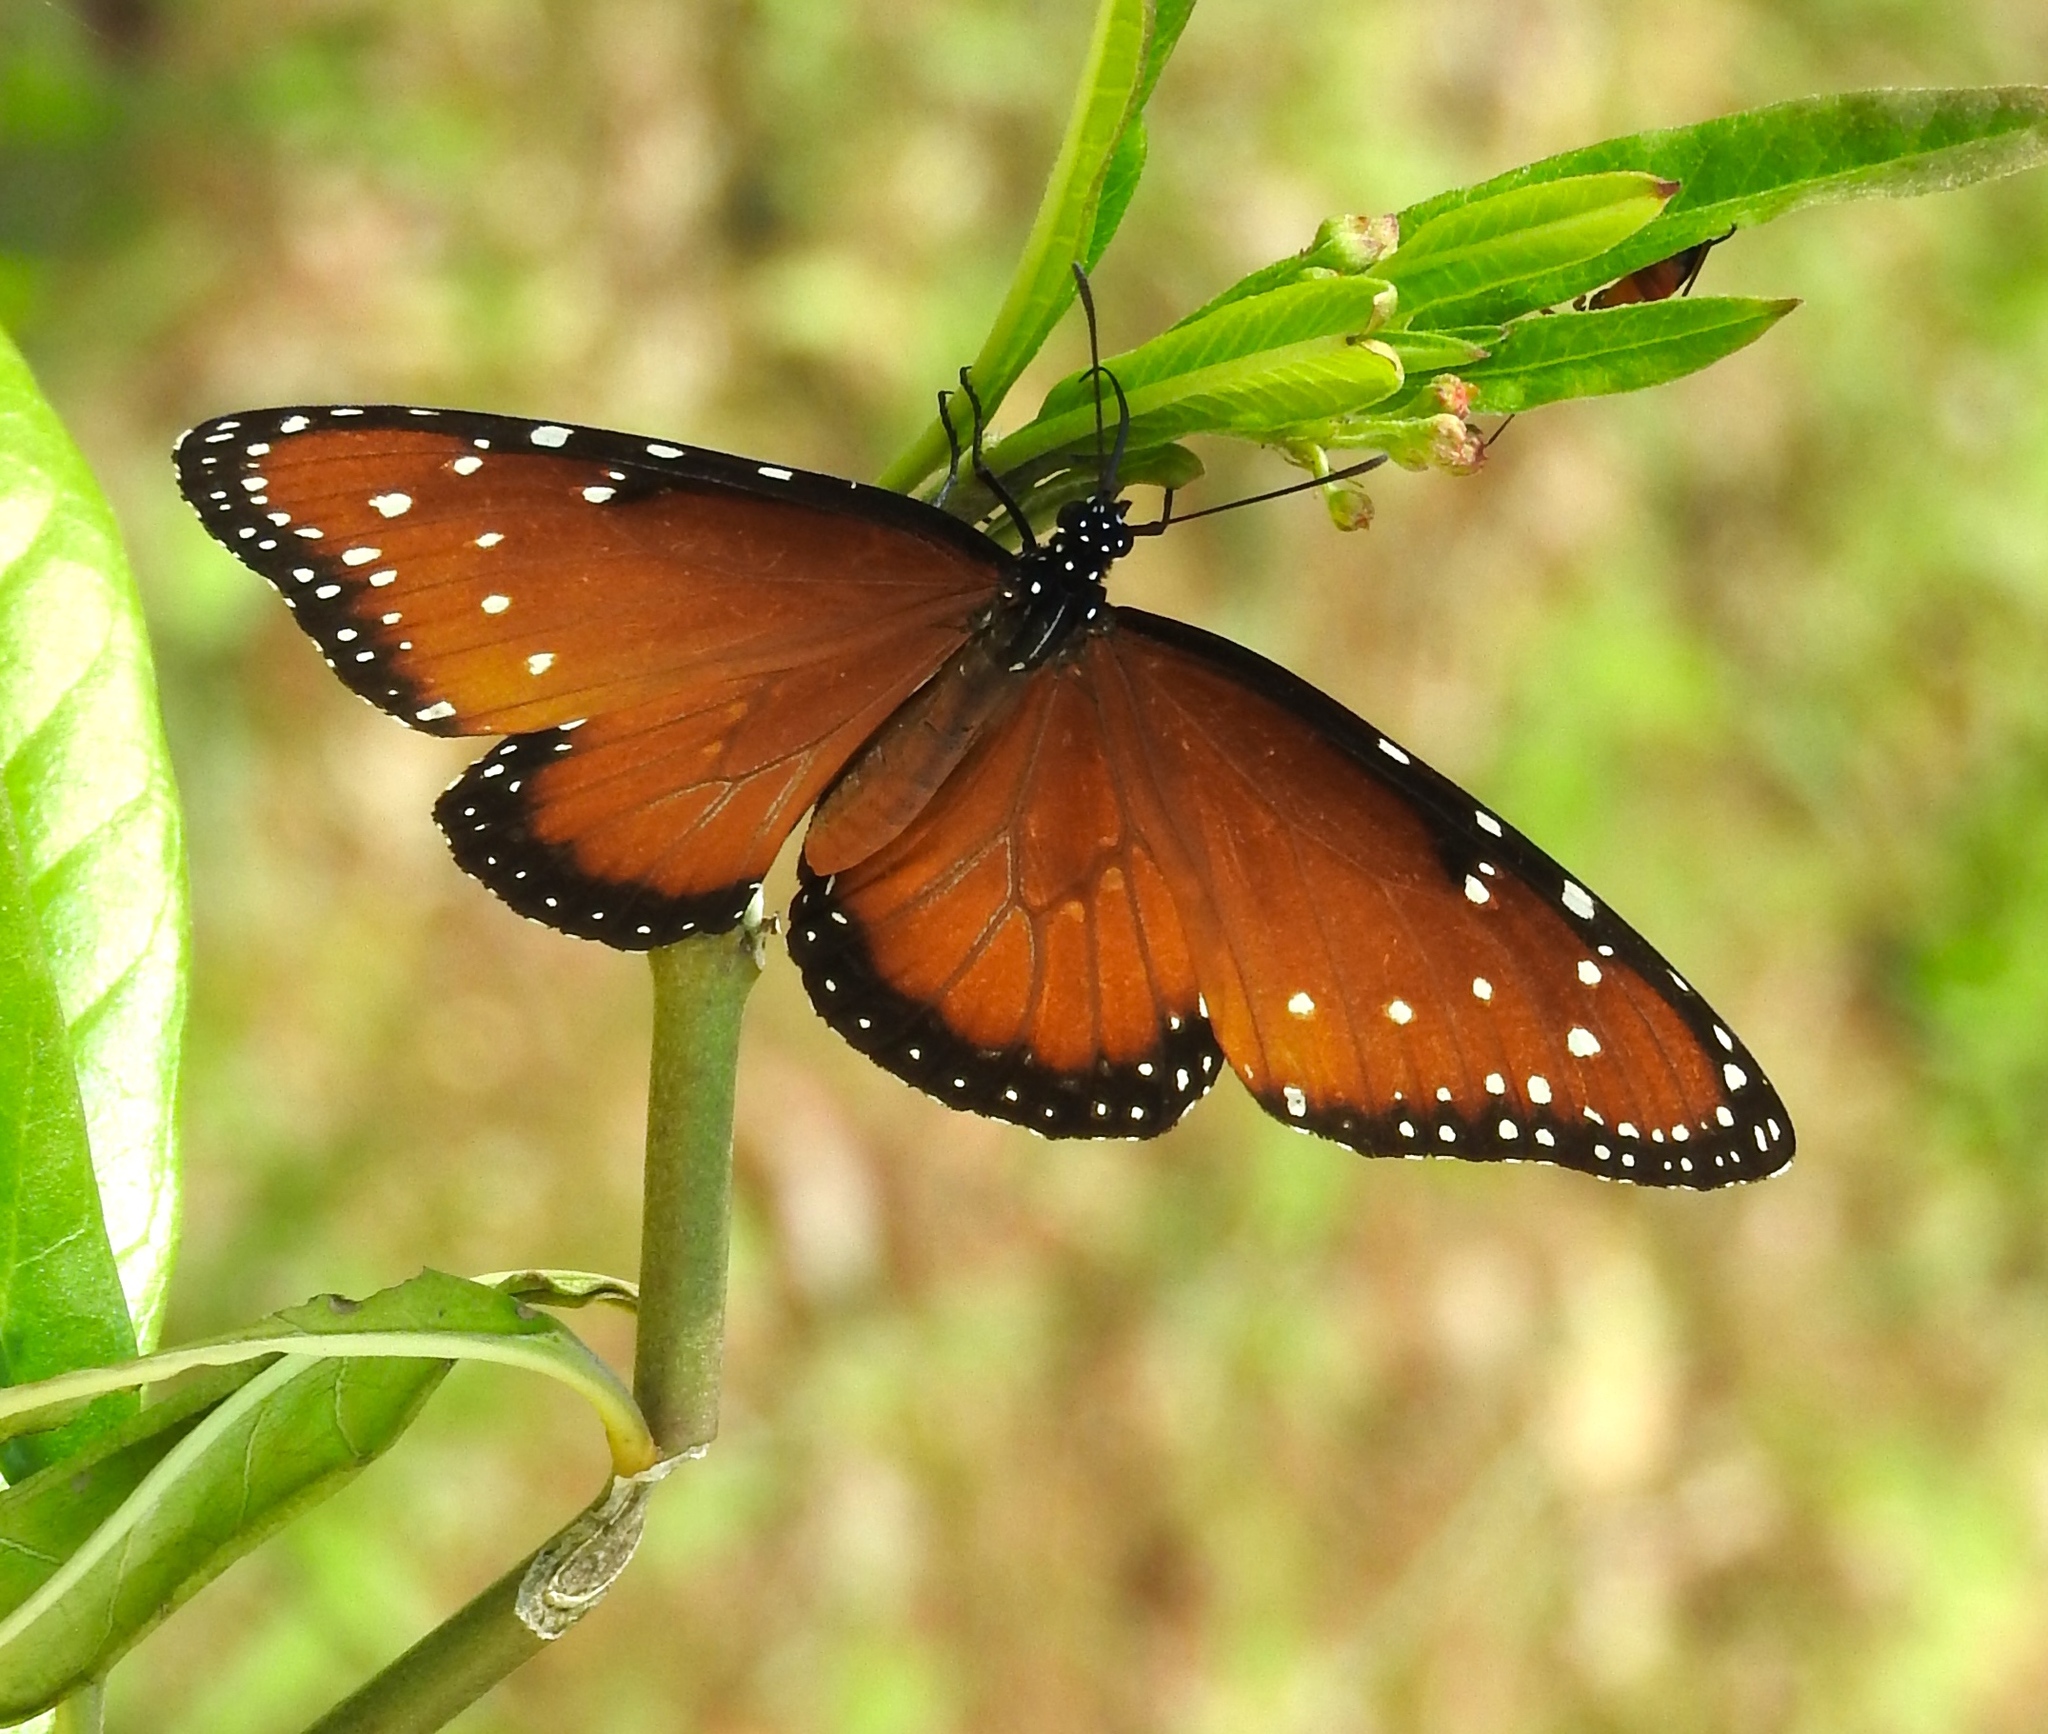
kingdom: Animalia
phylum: Arthropoda
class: Insecta
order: Lepidoptera
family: Nymphalidae
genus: Danaus
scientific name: Danaus gilippus
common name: Queen
